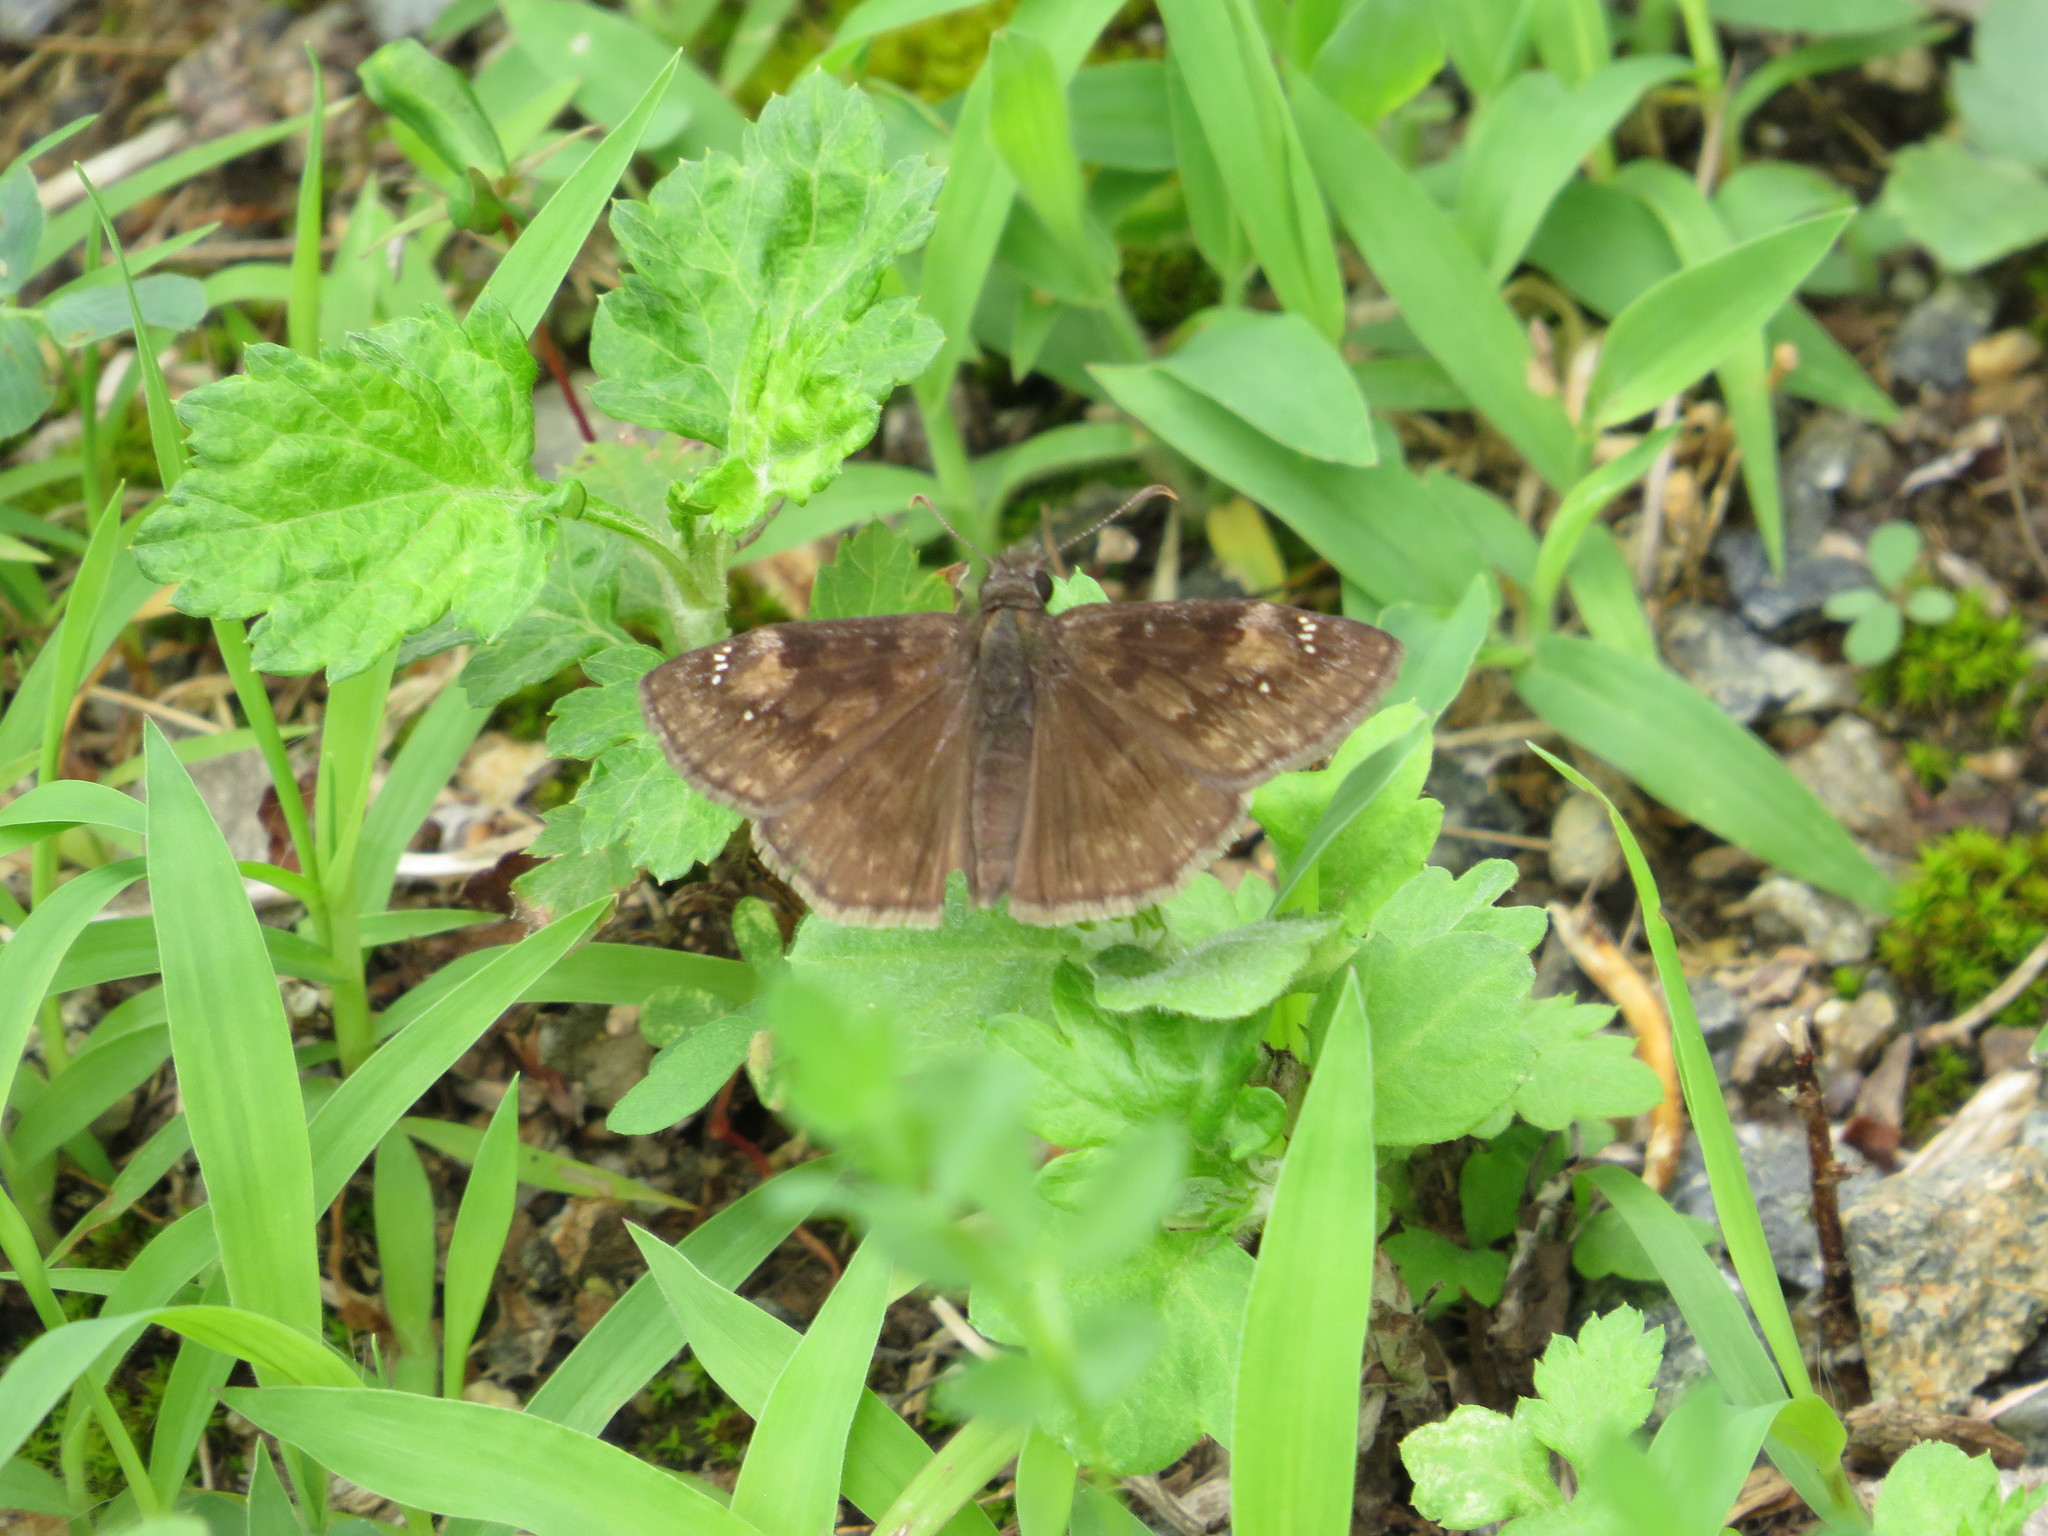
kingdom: Animalia
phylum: Arthropoda
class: Insecta
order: Lepidoptera
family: Hesperiidae
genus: Erynnis
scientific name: Erynnis baptisiae
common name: Wild indigo duskywing
